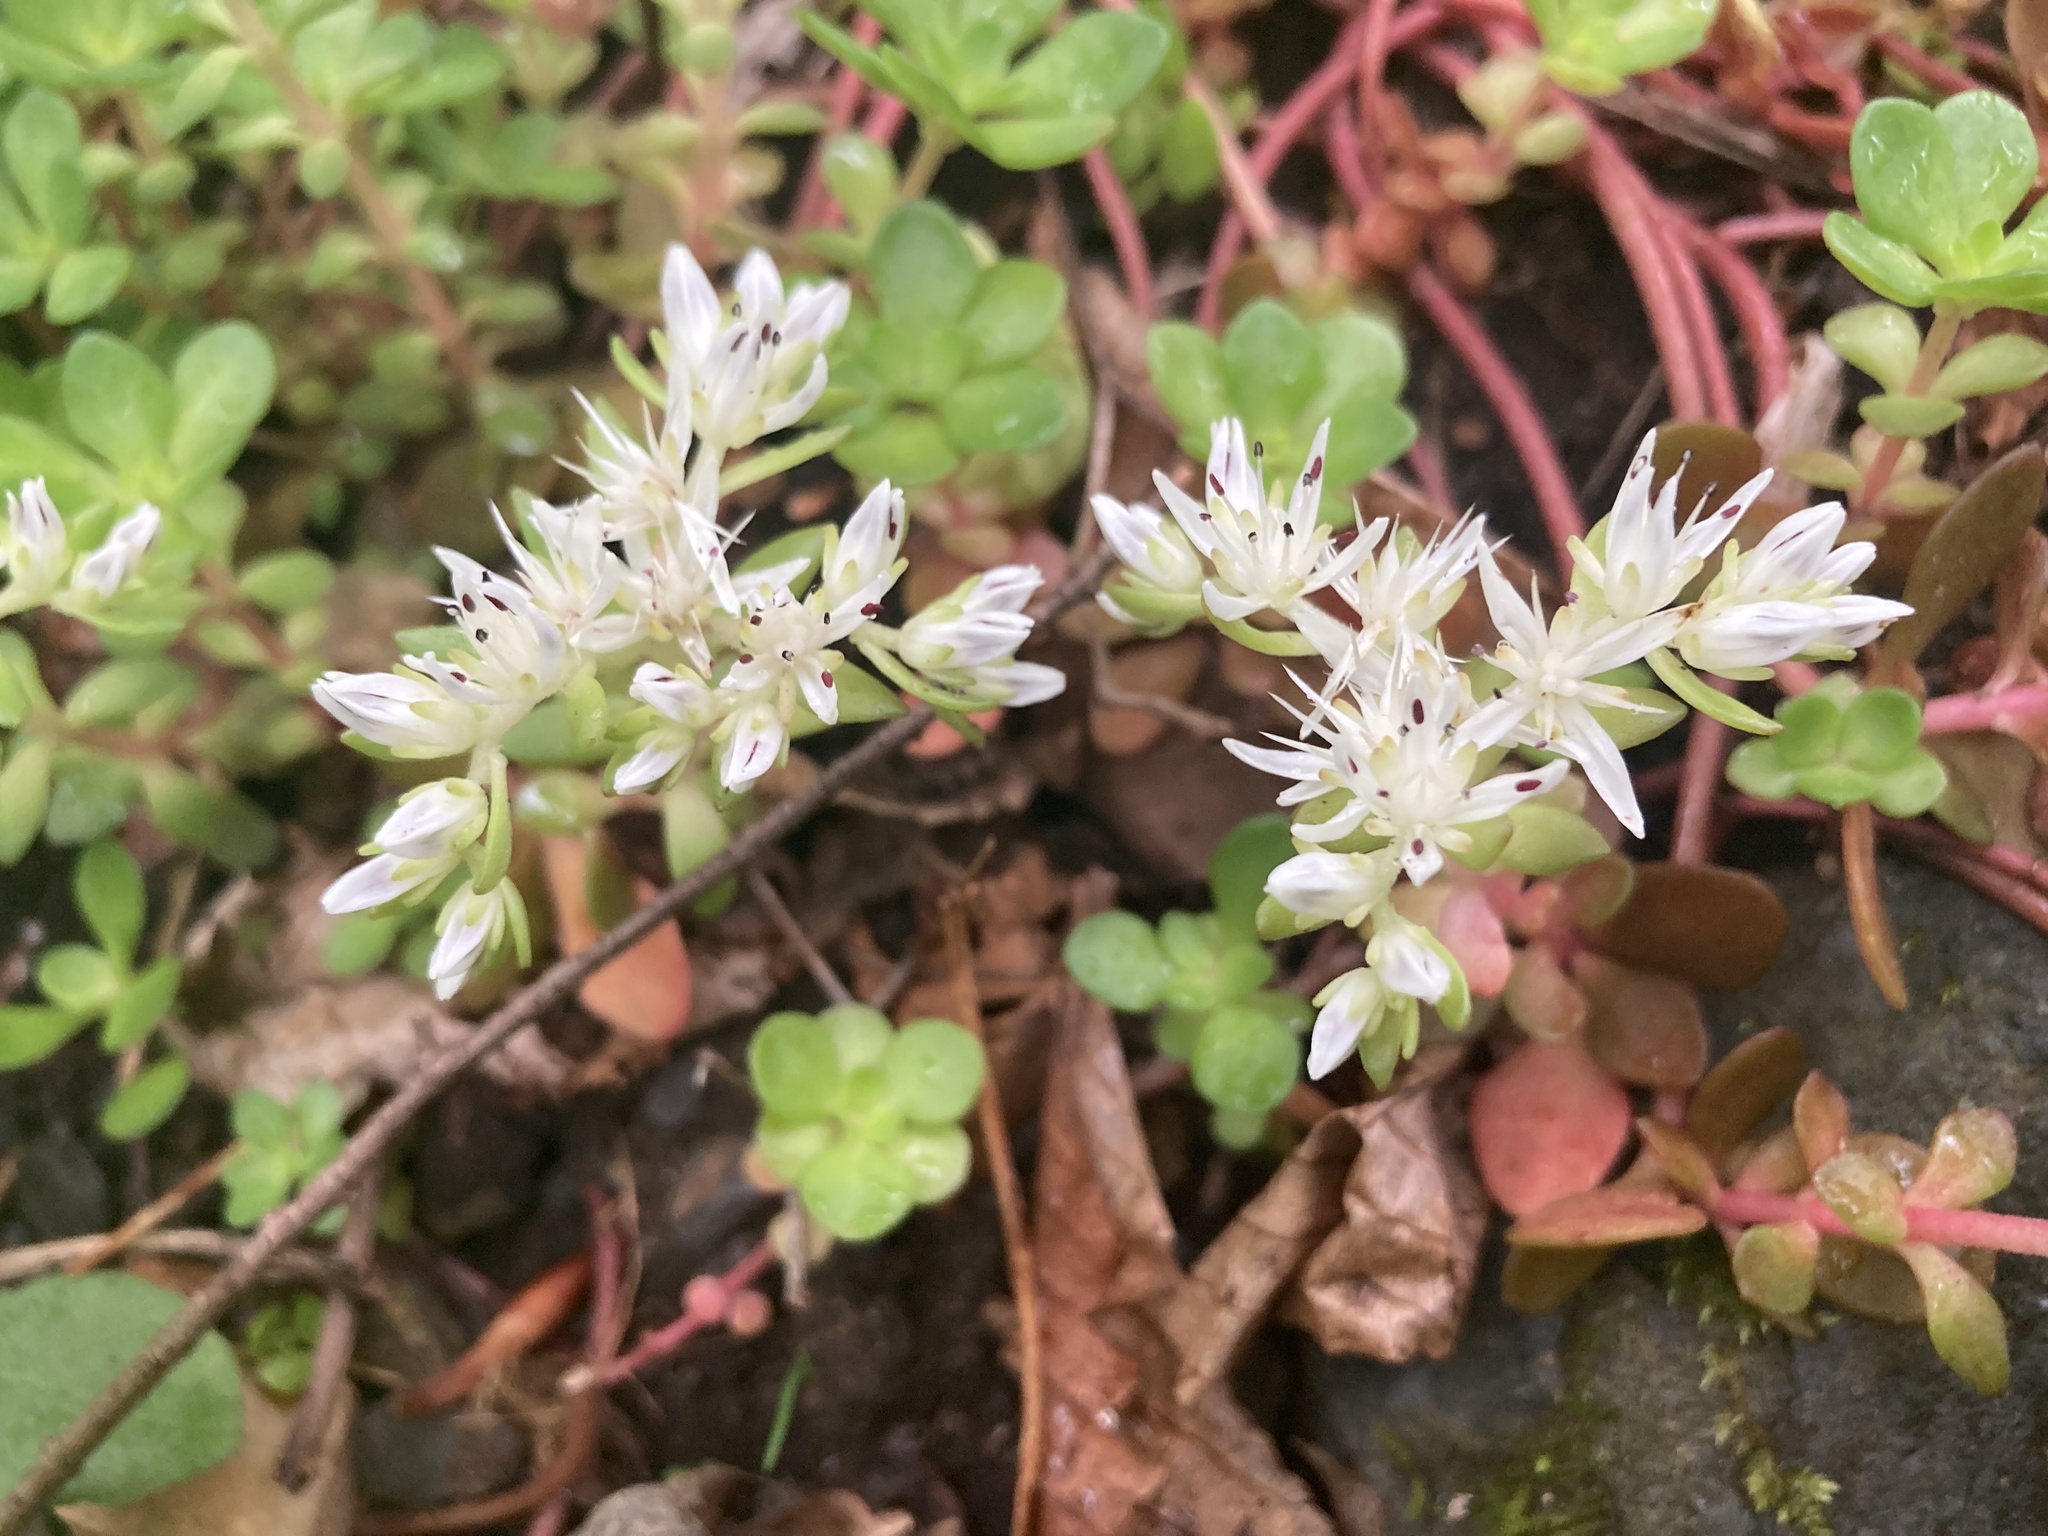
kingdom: Plantae
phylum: Tracheophyta
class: Magnoliopsida
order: Saxifragales
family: Crassulaceae
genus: Sedum
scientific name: Sedum ternatum
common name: Wild stonecrop
